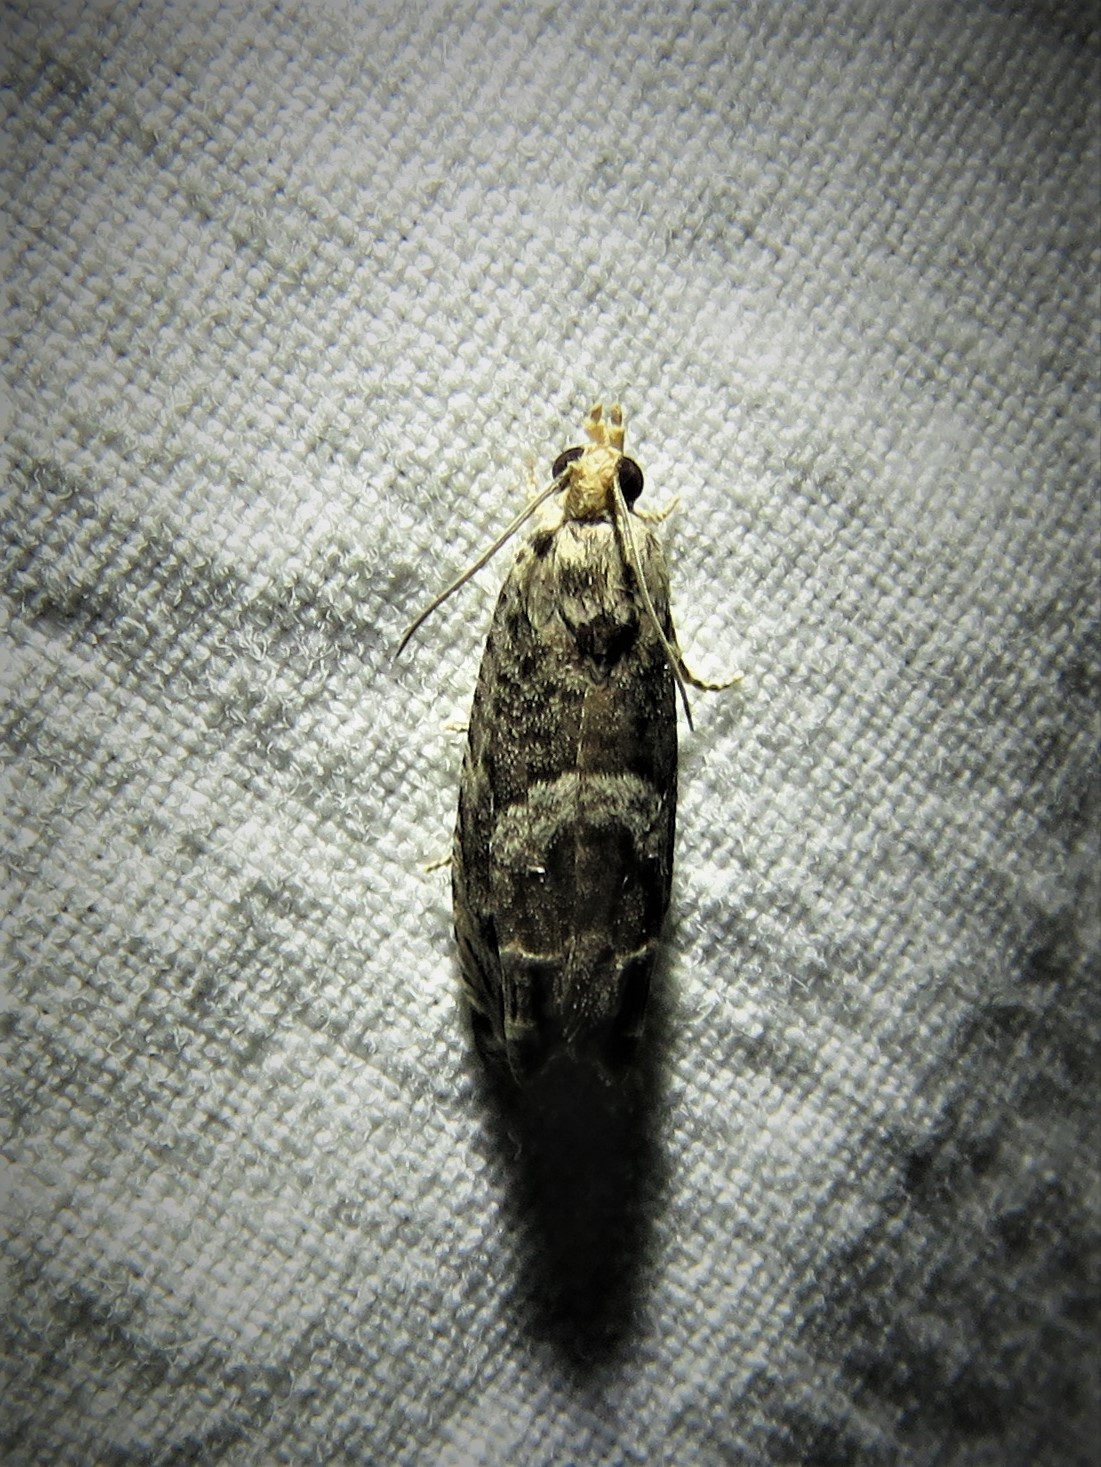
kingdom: Animalia
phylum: Arthropoda
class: Insecta
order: Lepidoptera
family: Tortricidae
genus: Cydia
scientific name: Cydia membrosa
